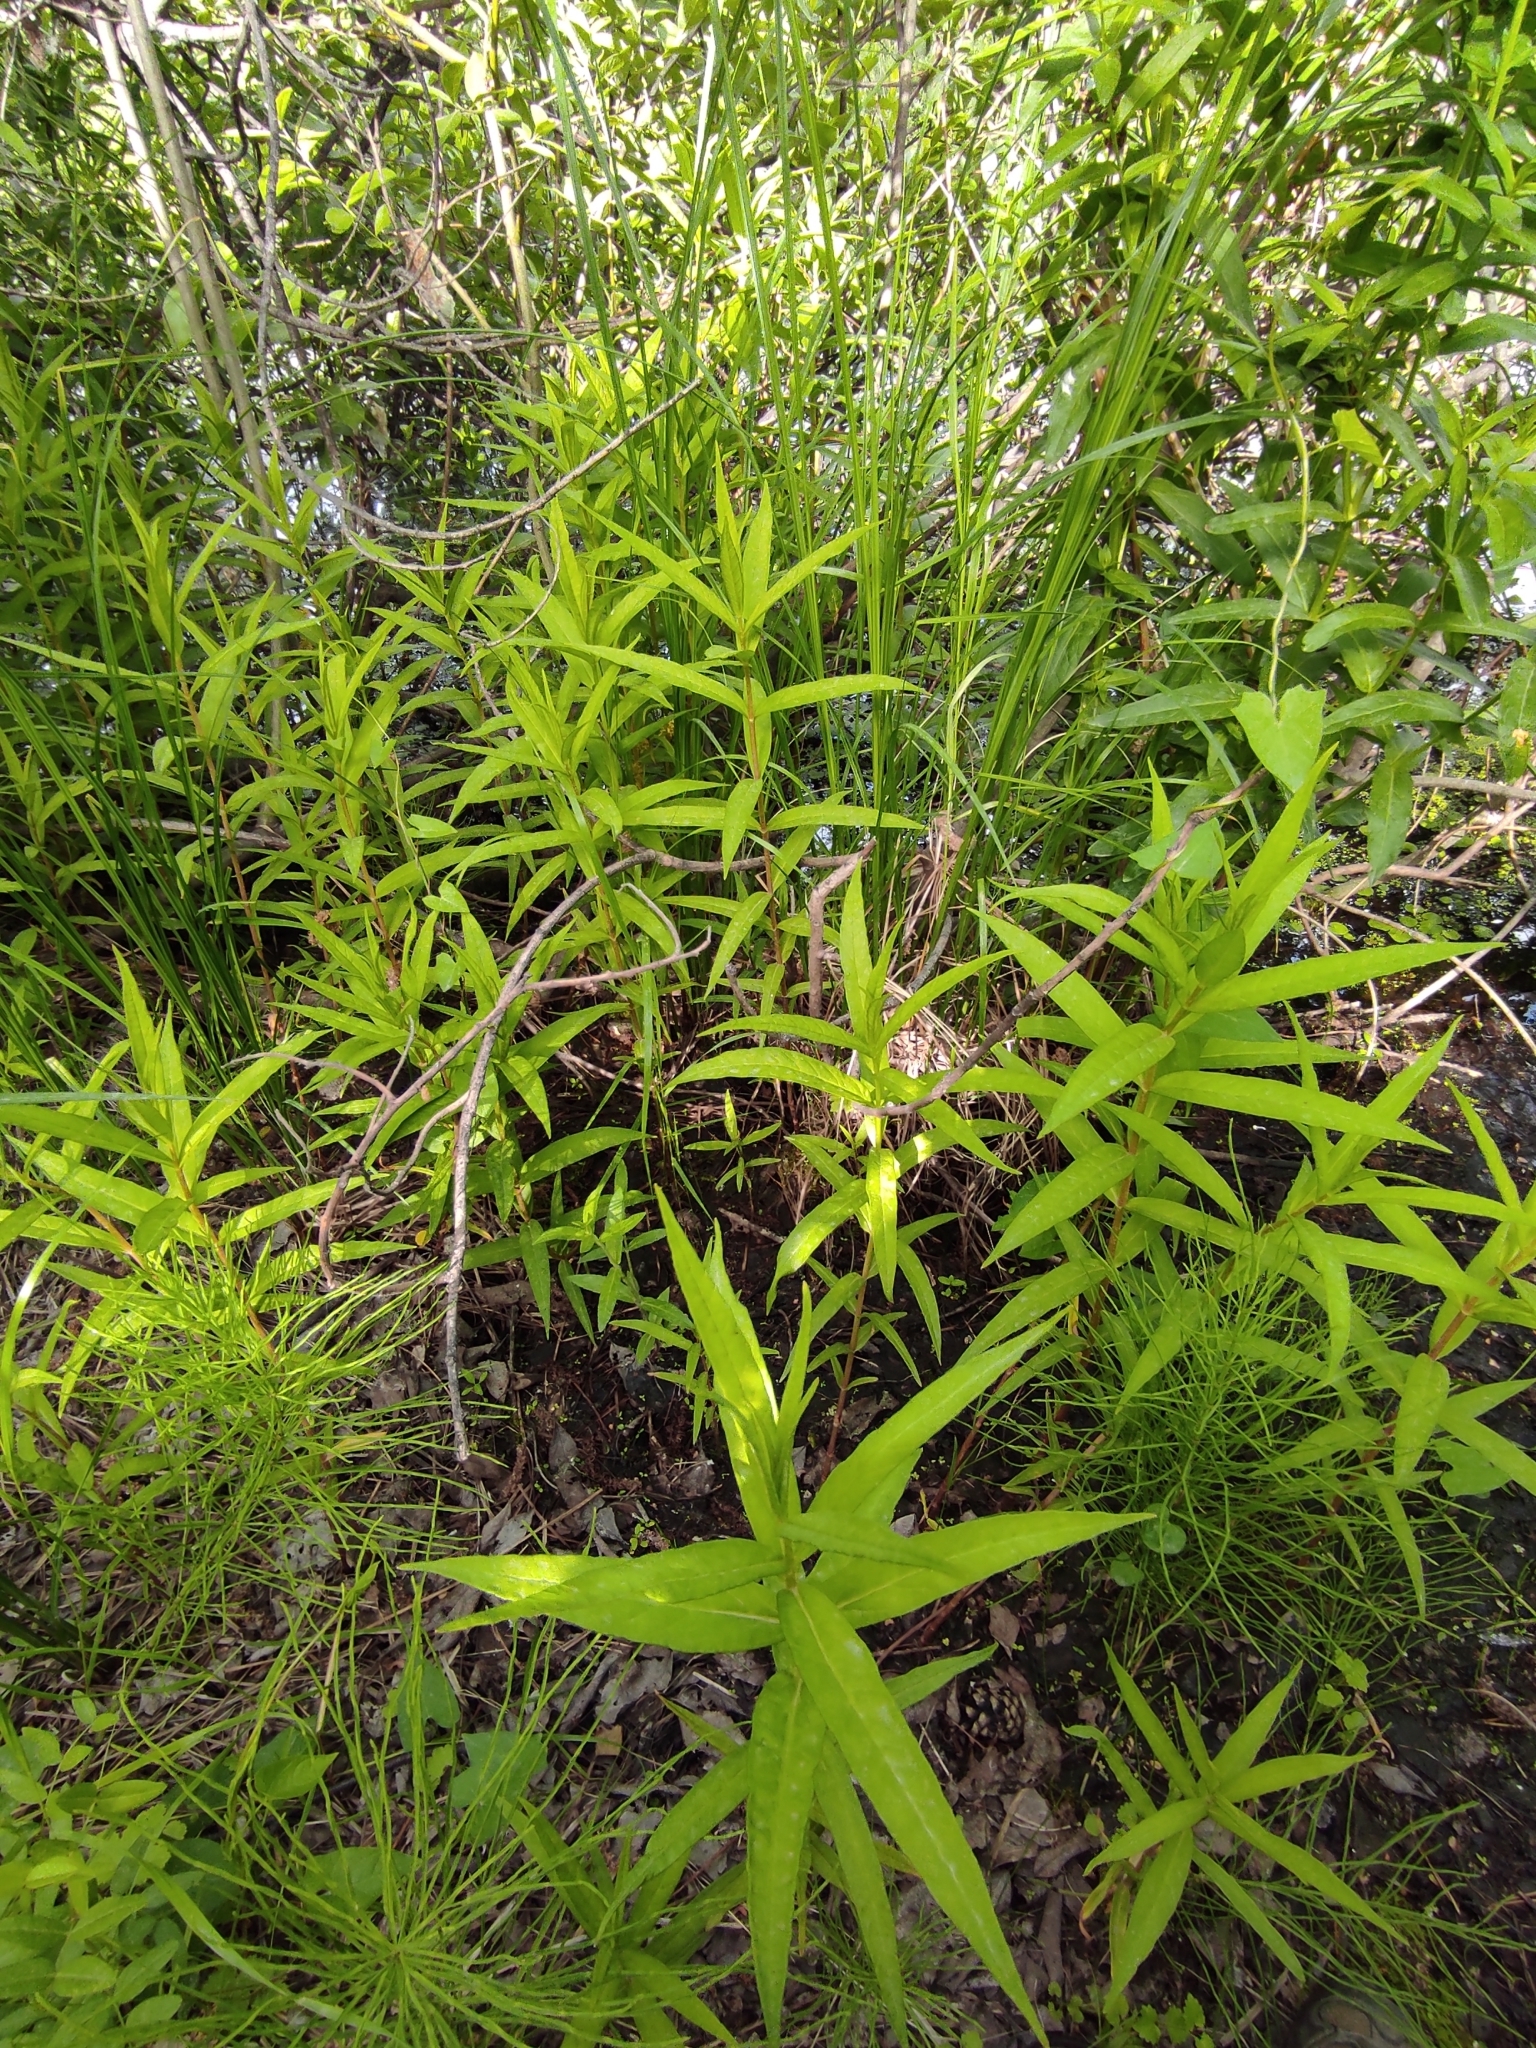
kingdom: Plantae
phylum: Tracheophyta
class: Magnoliopsida
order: Ericales
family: Primulaceae
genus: Lysimachia
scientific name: Lysimachia thyrsiflora
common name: Tufted loosestrife
